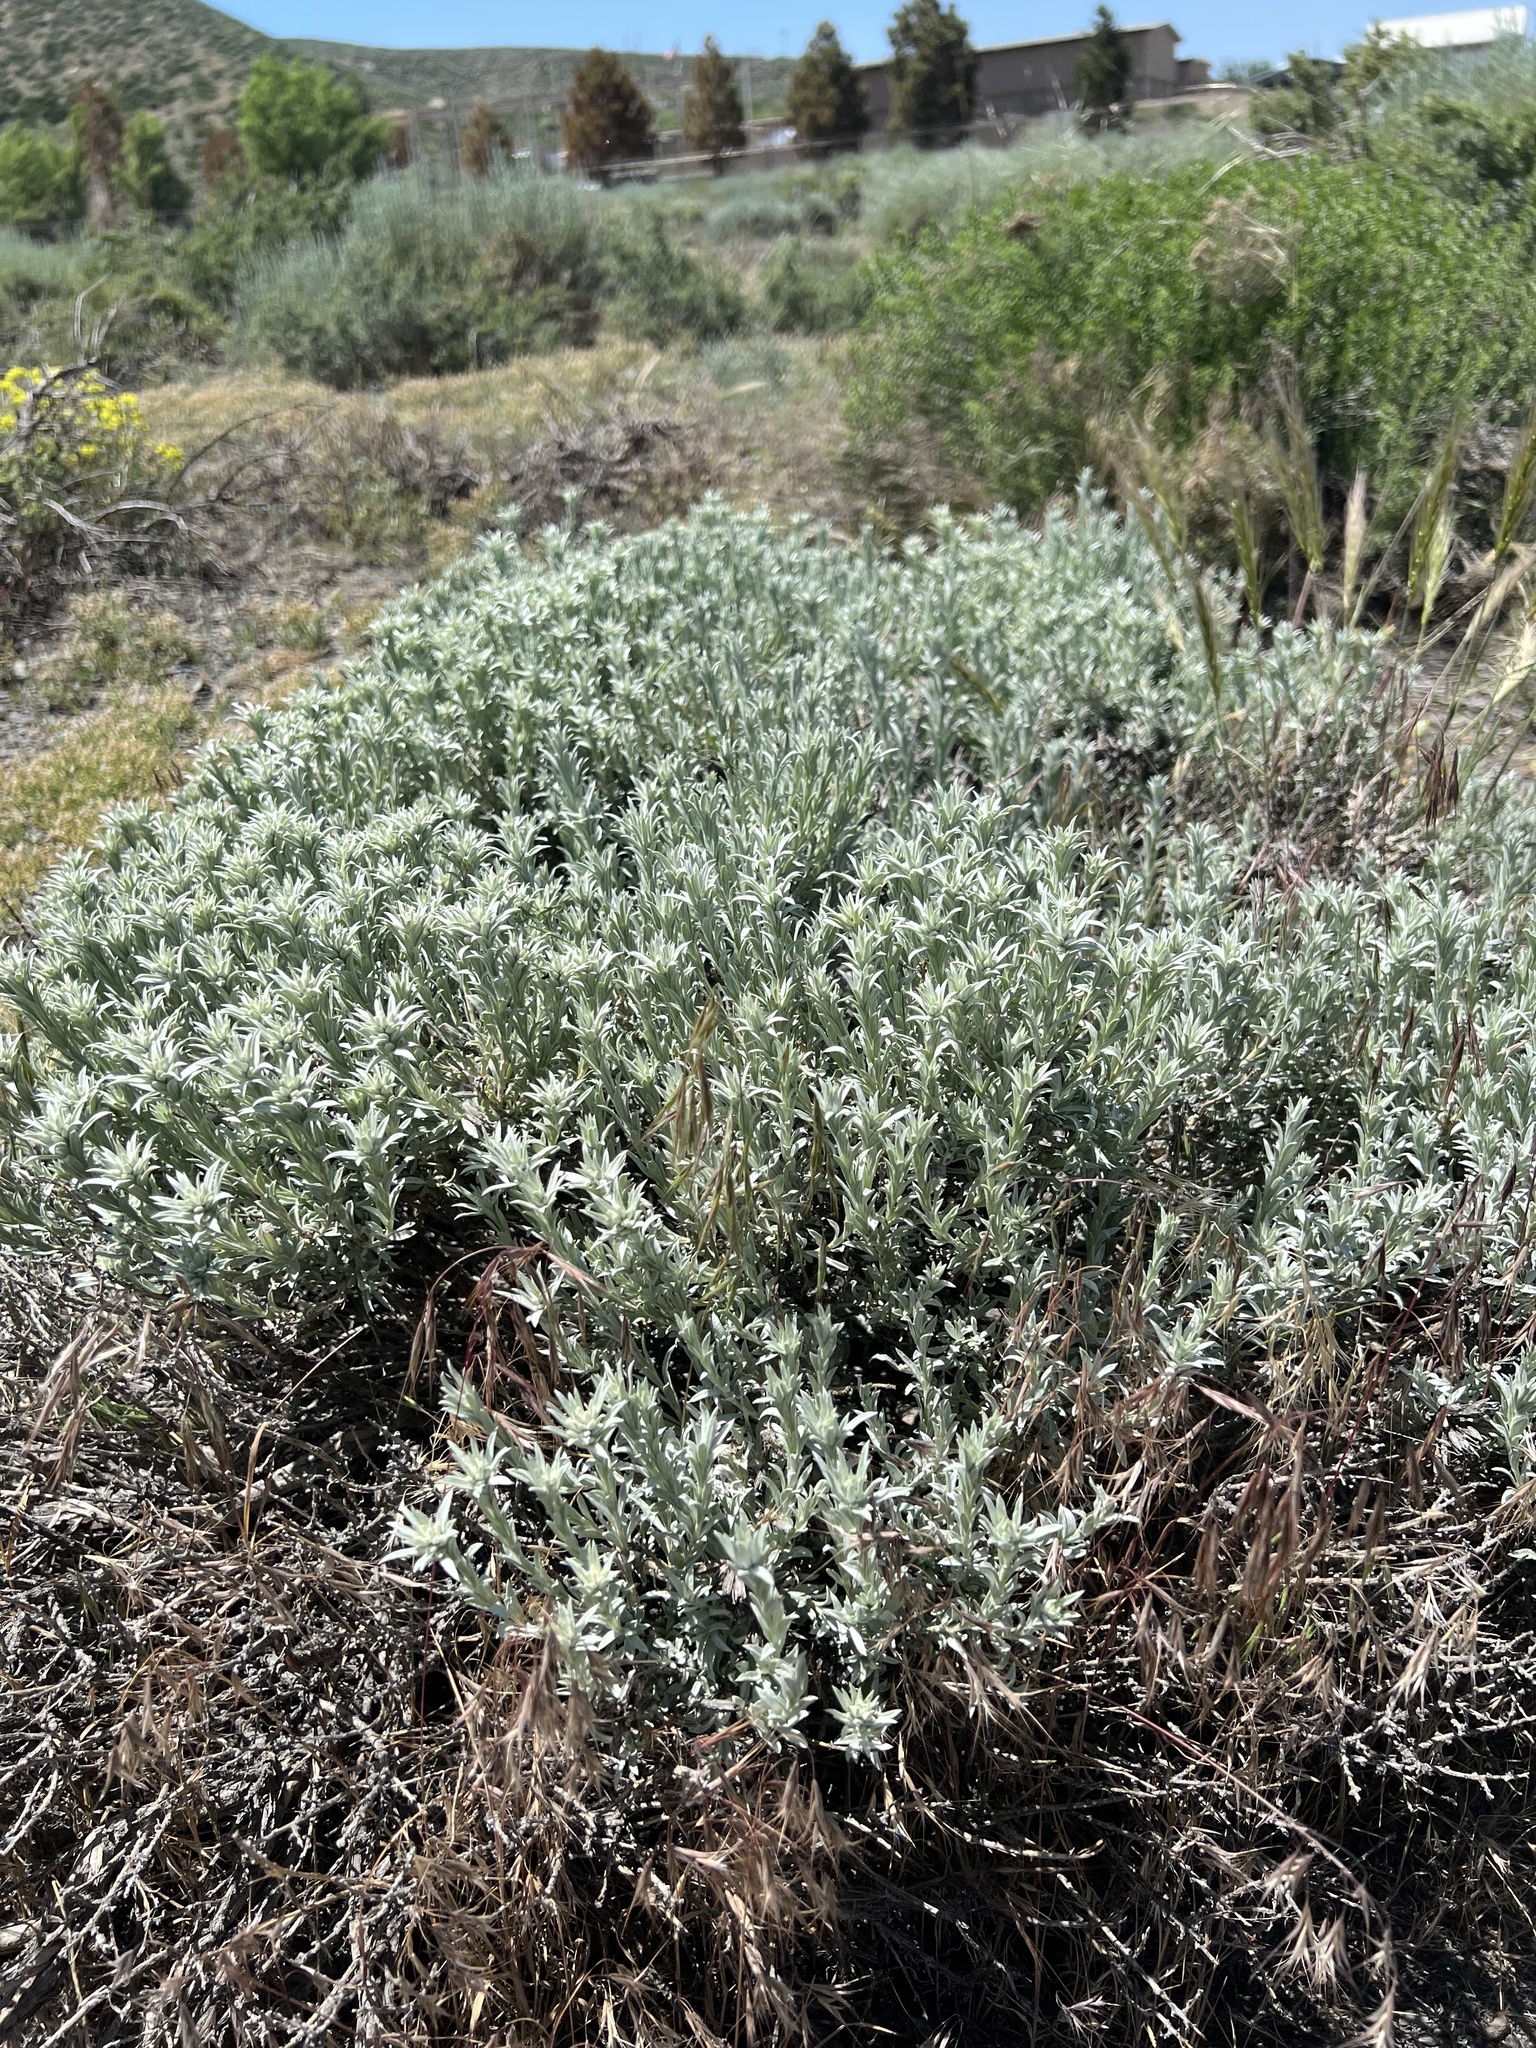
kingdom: Plantae
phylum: Tracheophyta
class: Magnoliopsida
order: Asterales
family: Asteraceae
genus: Tetradymia
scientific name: Tetradymia canescens
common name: Spineless horsebrush
